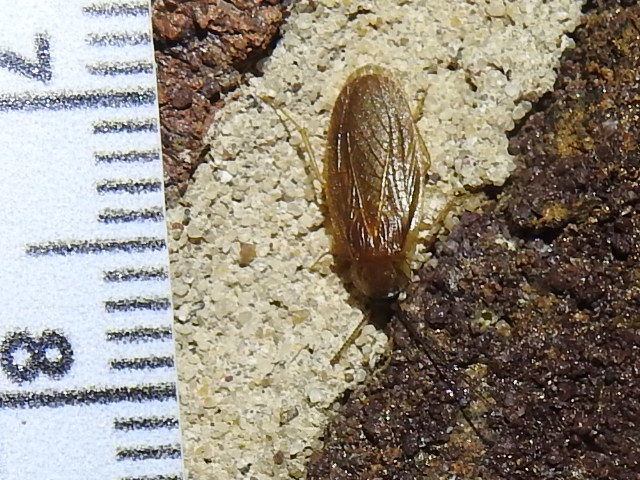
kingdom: Animalia
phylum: Arthropoda
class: Insecta
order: Blattodea
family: Corydiidae
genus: Compsodes
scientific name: Compsodes schwarzi
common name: Schwarz's hooded cockroach
